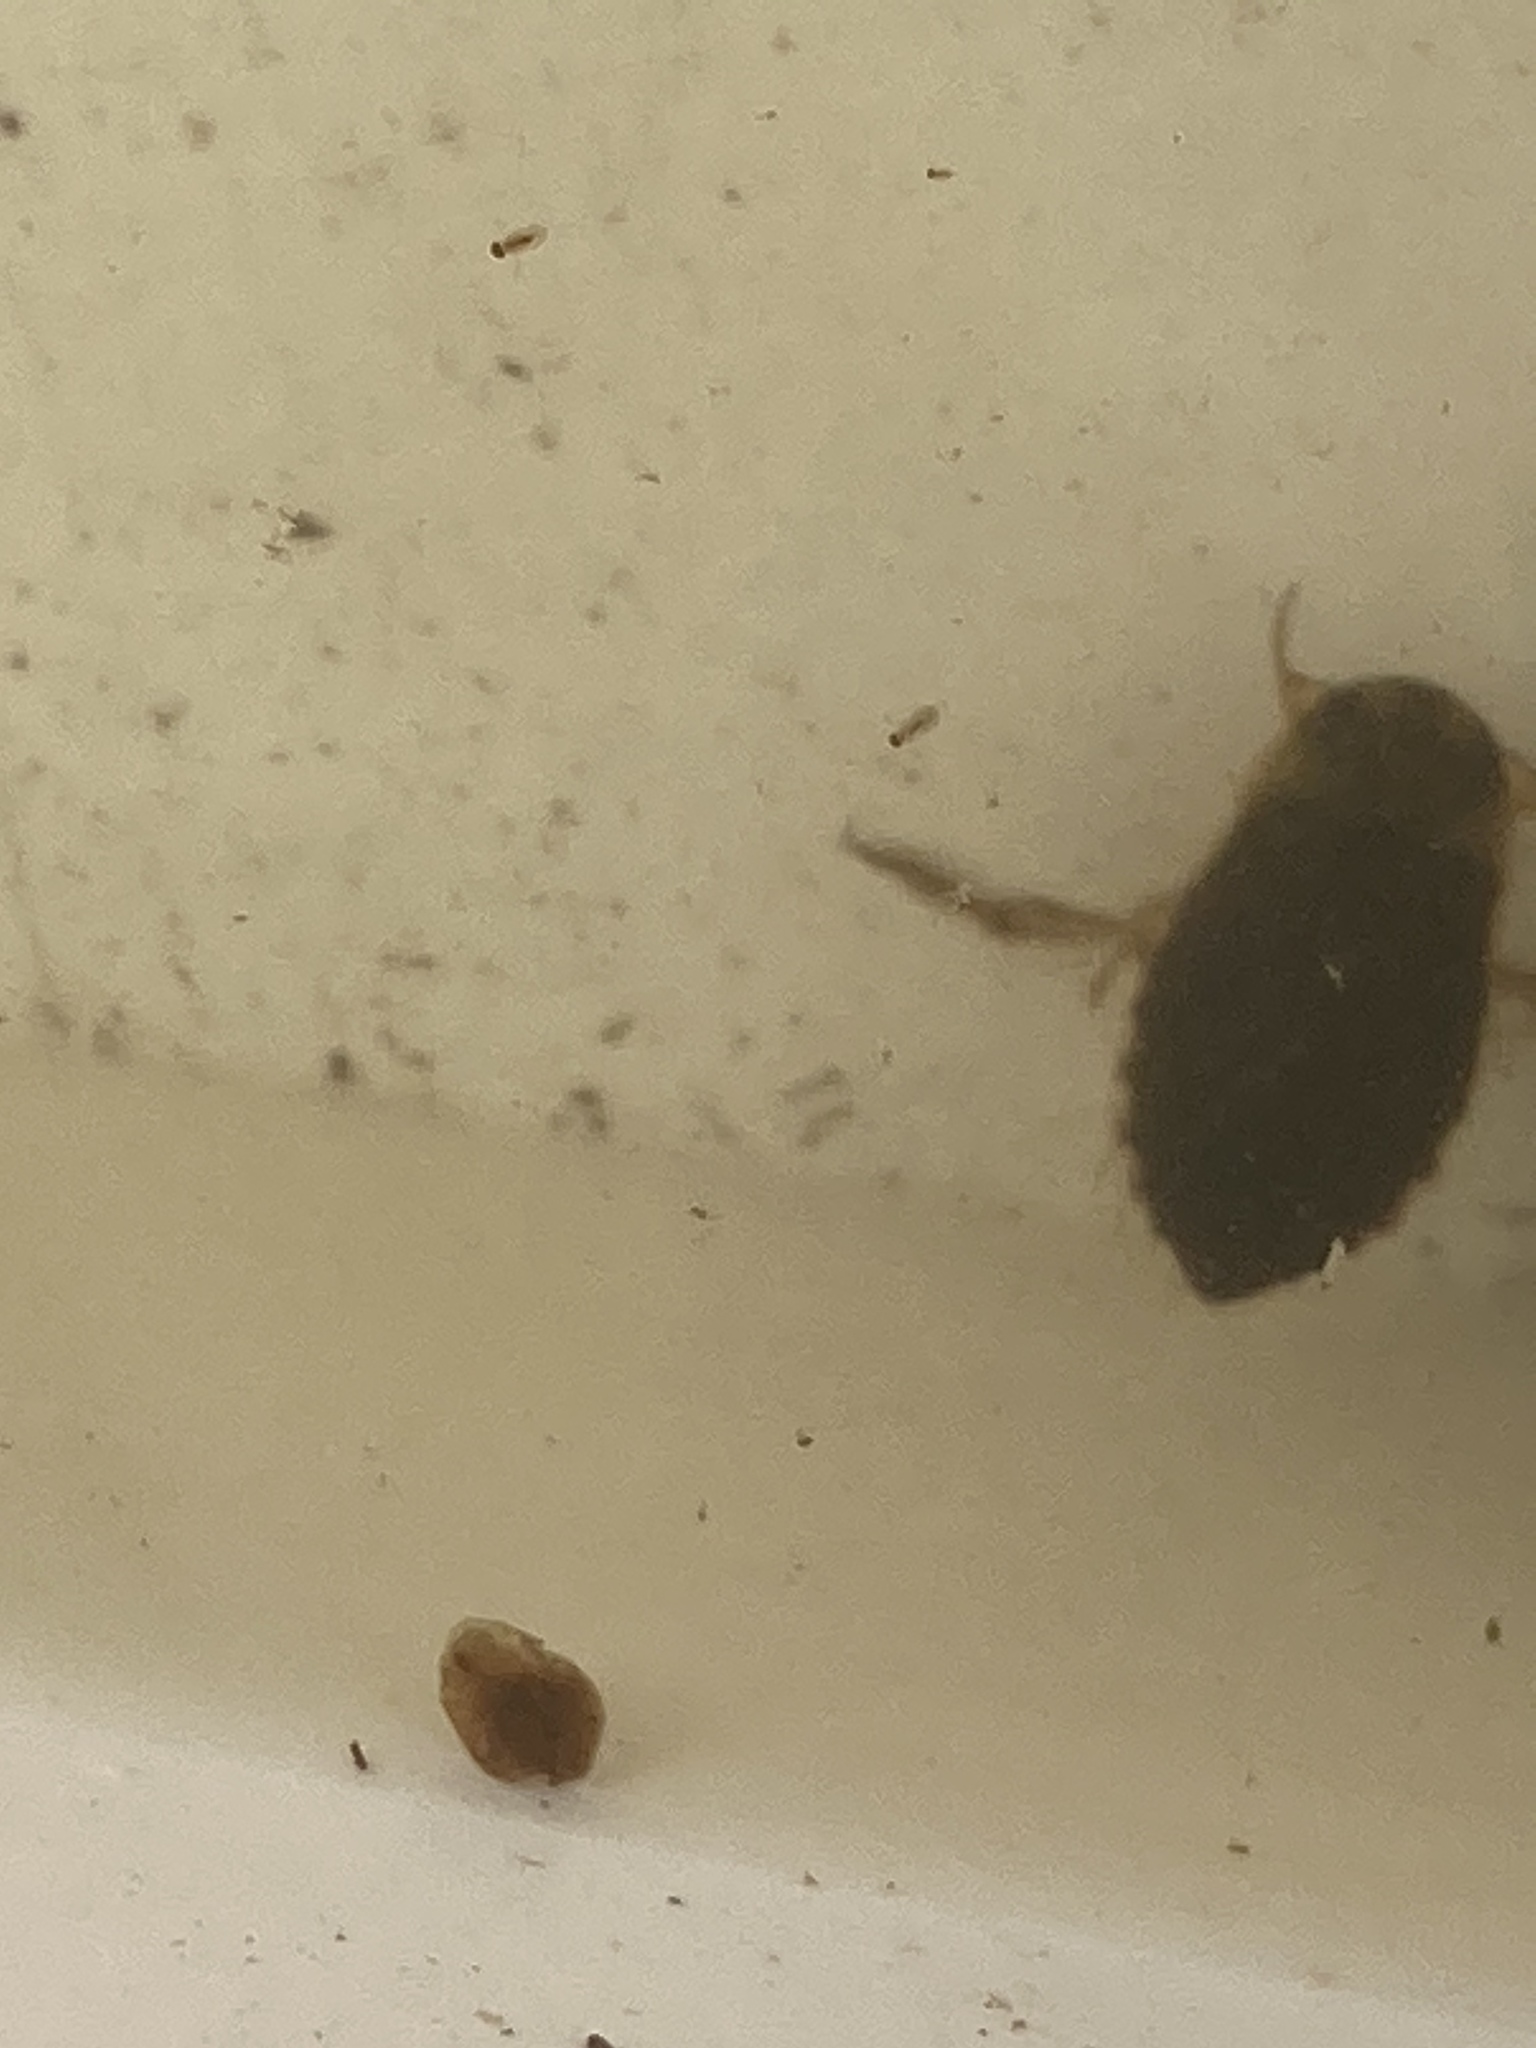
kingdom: Animalia
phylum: Arthropoda
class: Insecta
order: Hemiptera
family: Naucoridae
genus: Ilyocoris
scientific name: Ilyocoris cimicoides
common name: Saucer bugs
